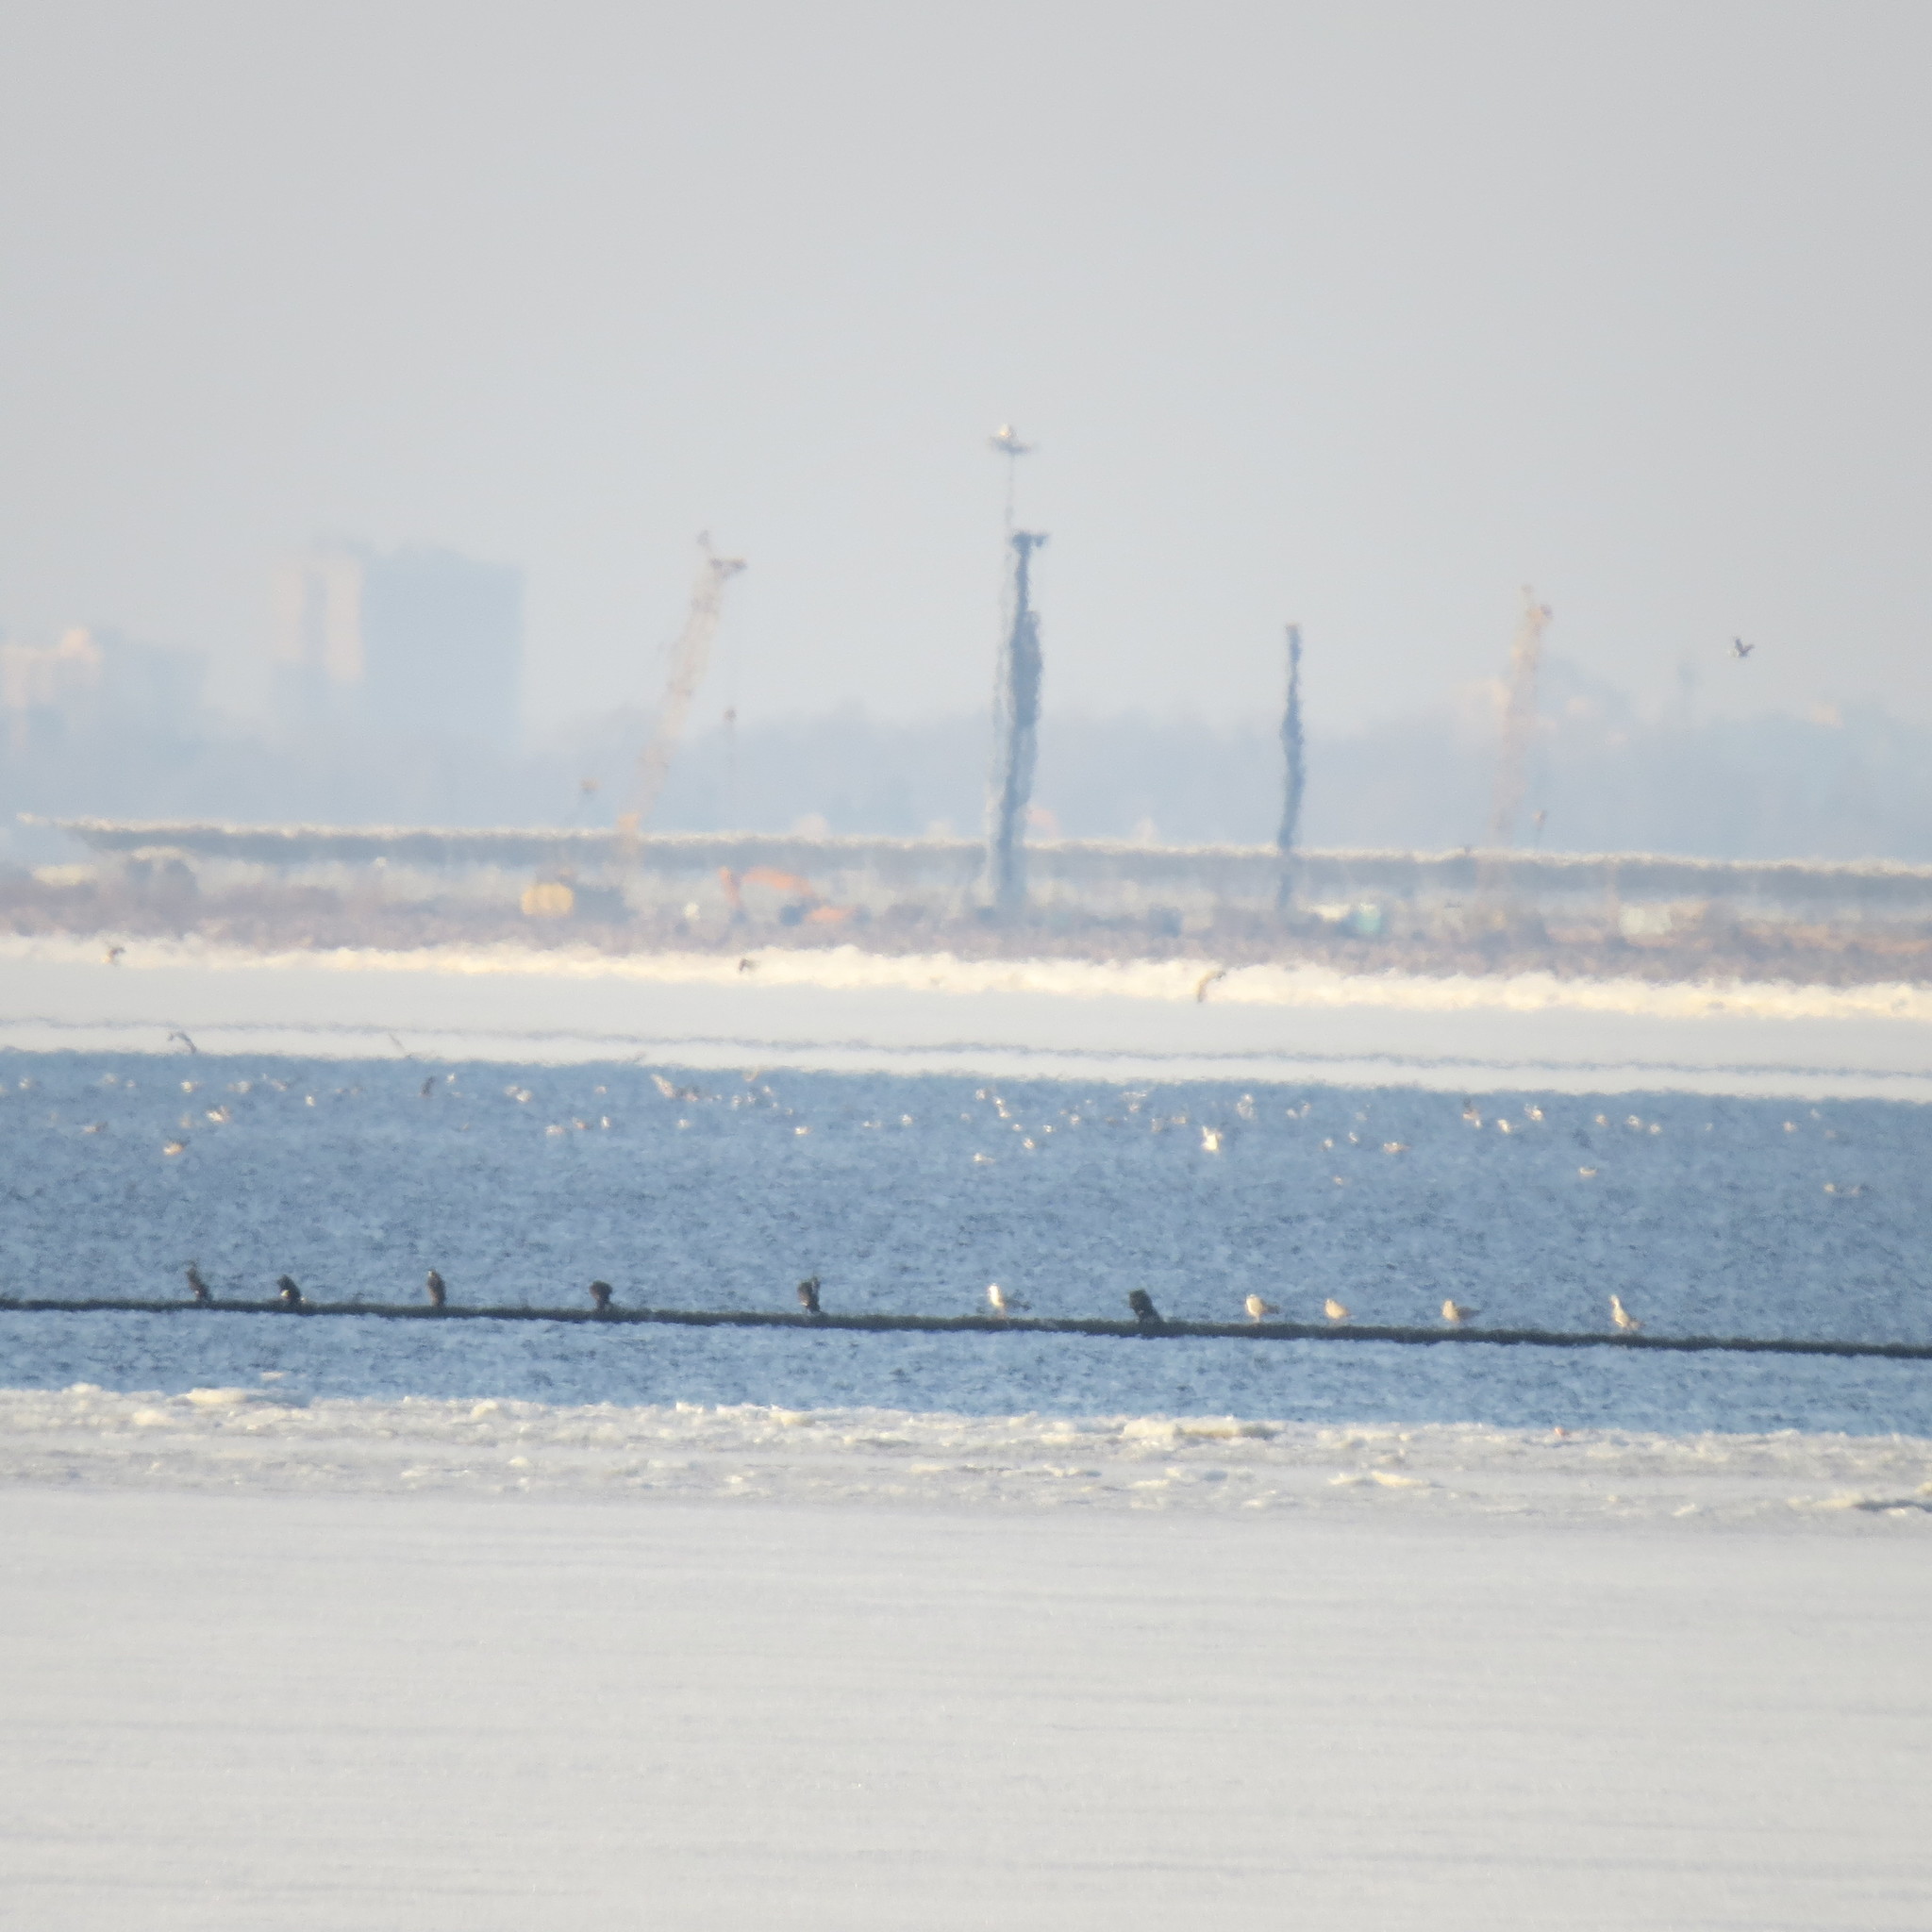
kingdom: Animalia
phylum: Chordata
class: Aves
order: Suliformes
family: Phalacrocoracidae
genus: Phalacrocorax
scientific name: Phalacrocorax carbo
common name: Great cormorant
